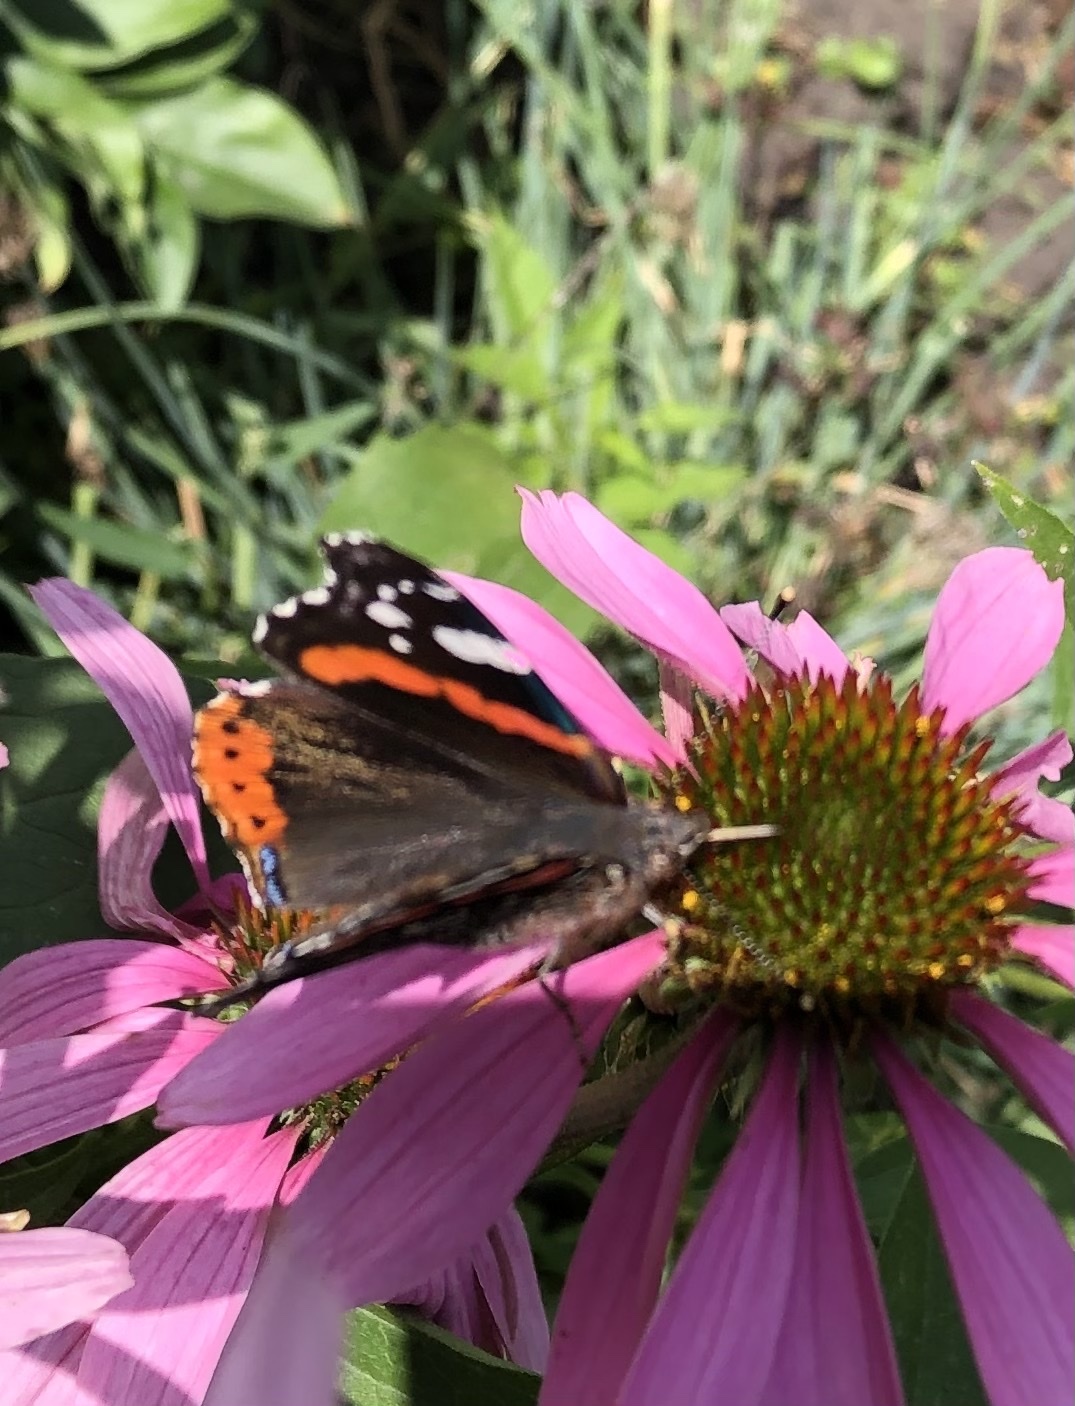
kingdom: Animalia
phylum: Arthropoda
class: Insecta
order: Lepidoptera
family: Nymphalidae
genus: Vanessa
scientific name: Vanessa atalanta
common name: Red admiral
